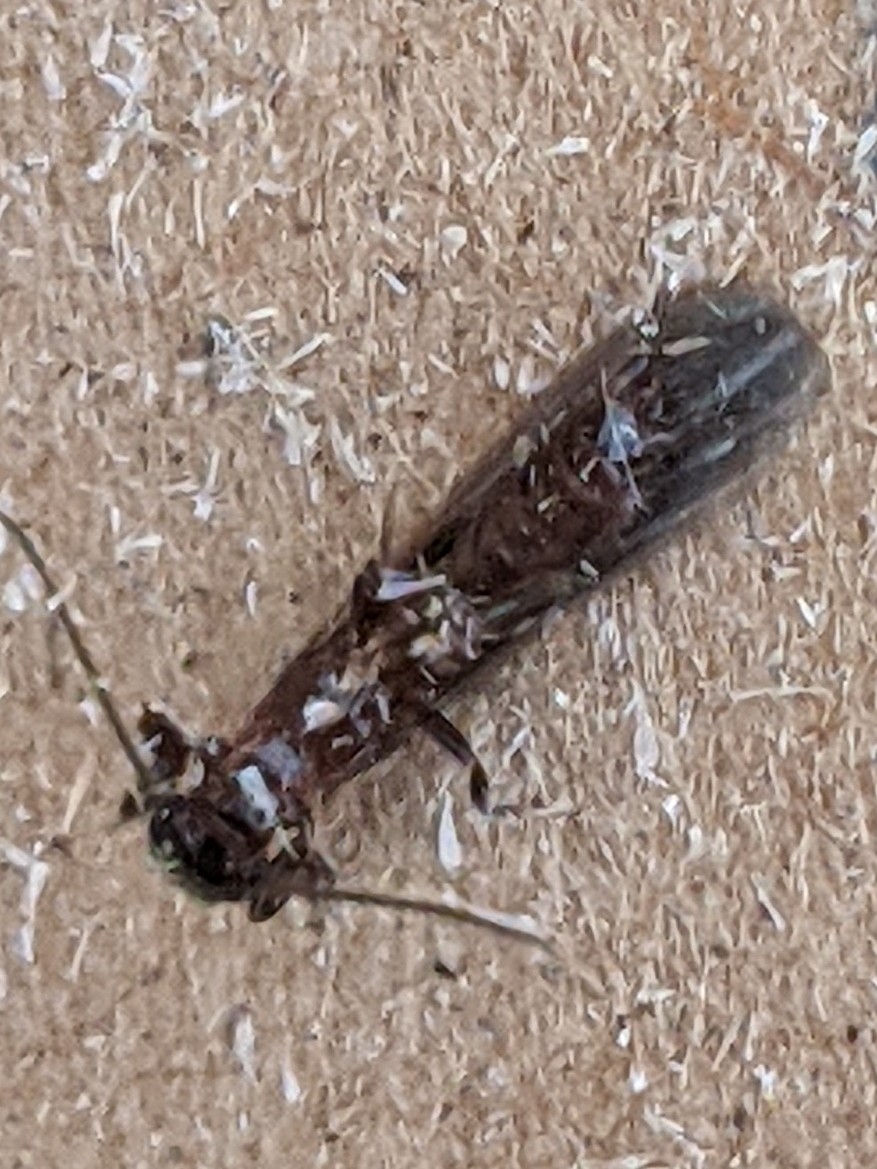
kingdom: Animalia
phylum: Arthropoda
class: Insecta
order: Embioptera
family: Oligotomidae
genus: Oligotoma
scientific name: Oligotoma nigra
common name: Black webspinner
